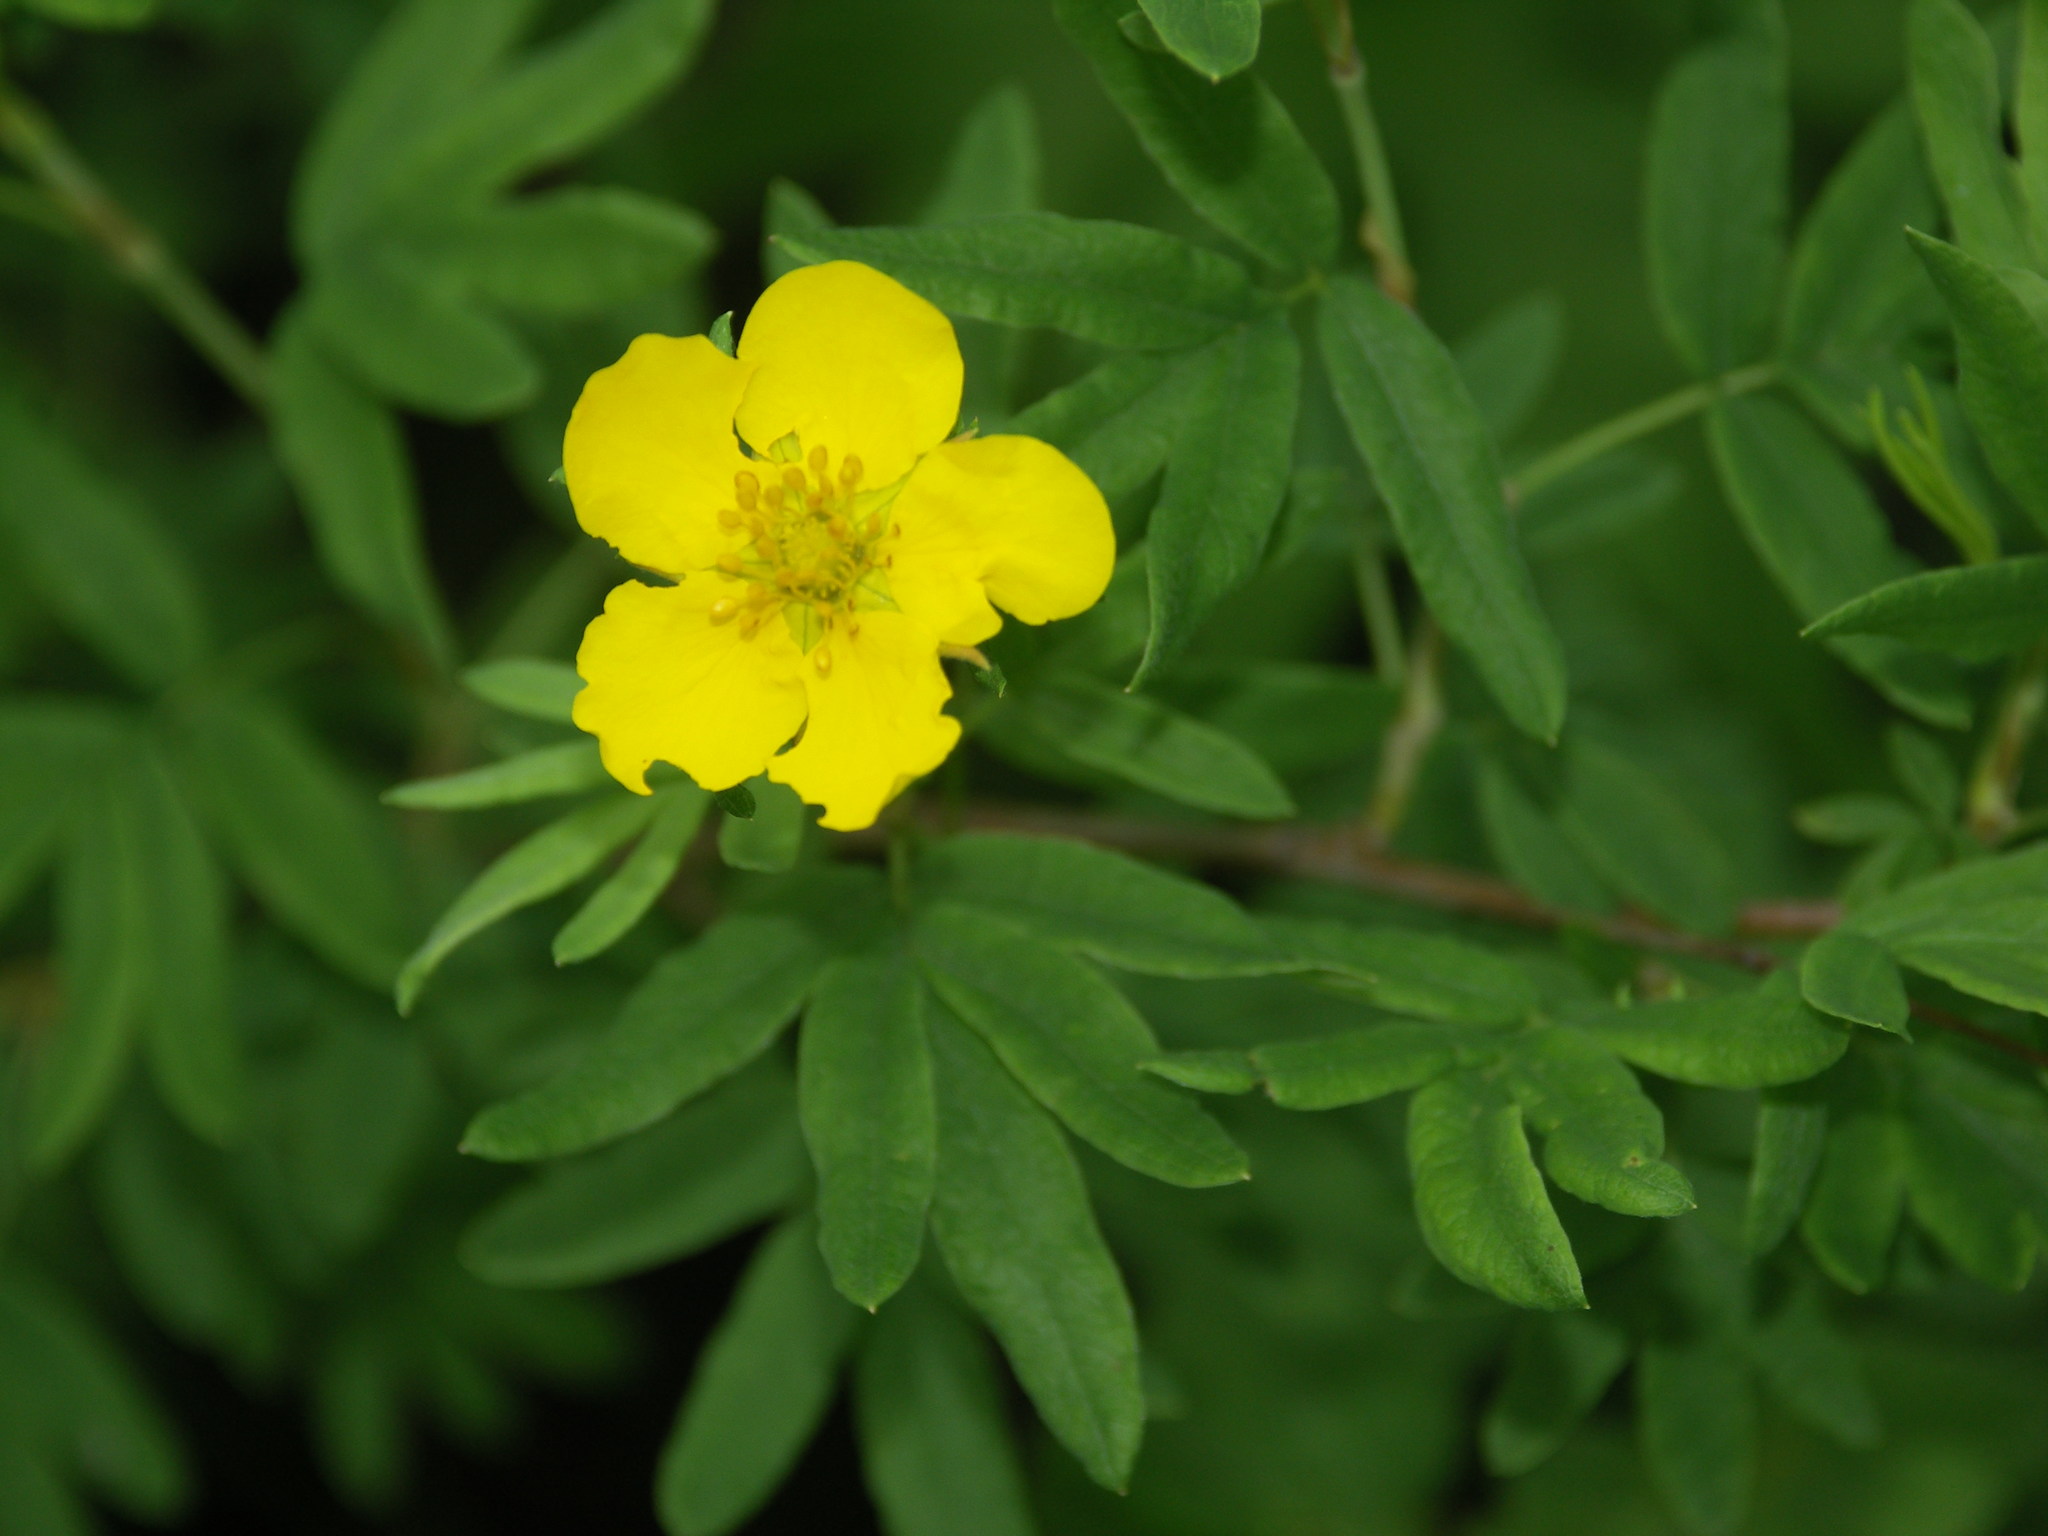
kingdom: Plantae
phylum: Tracheophyta
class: Magnoliopsida
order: Rosales
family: Rosaceae
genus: Dasiphora
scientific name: Dasiphora fruticosa
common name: Shrubby cinquefoil
